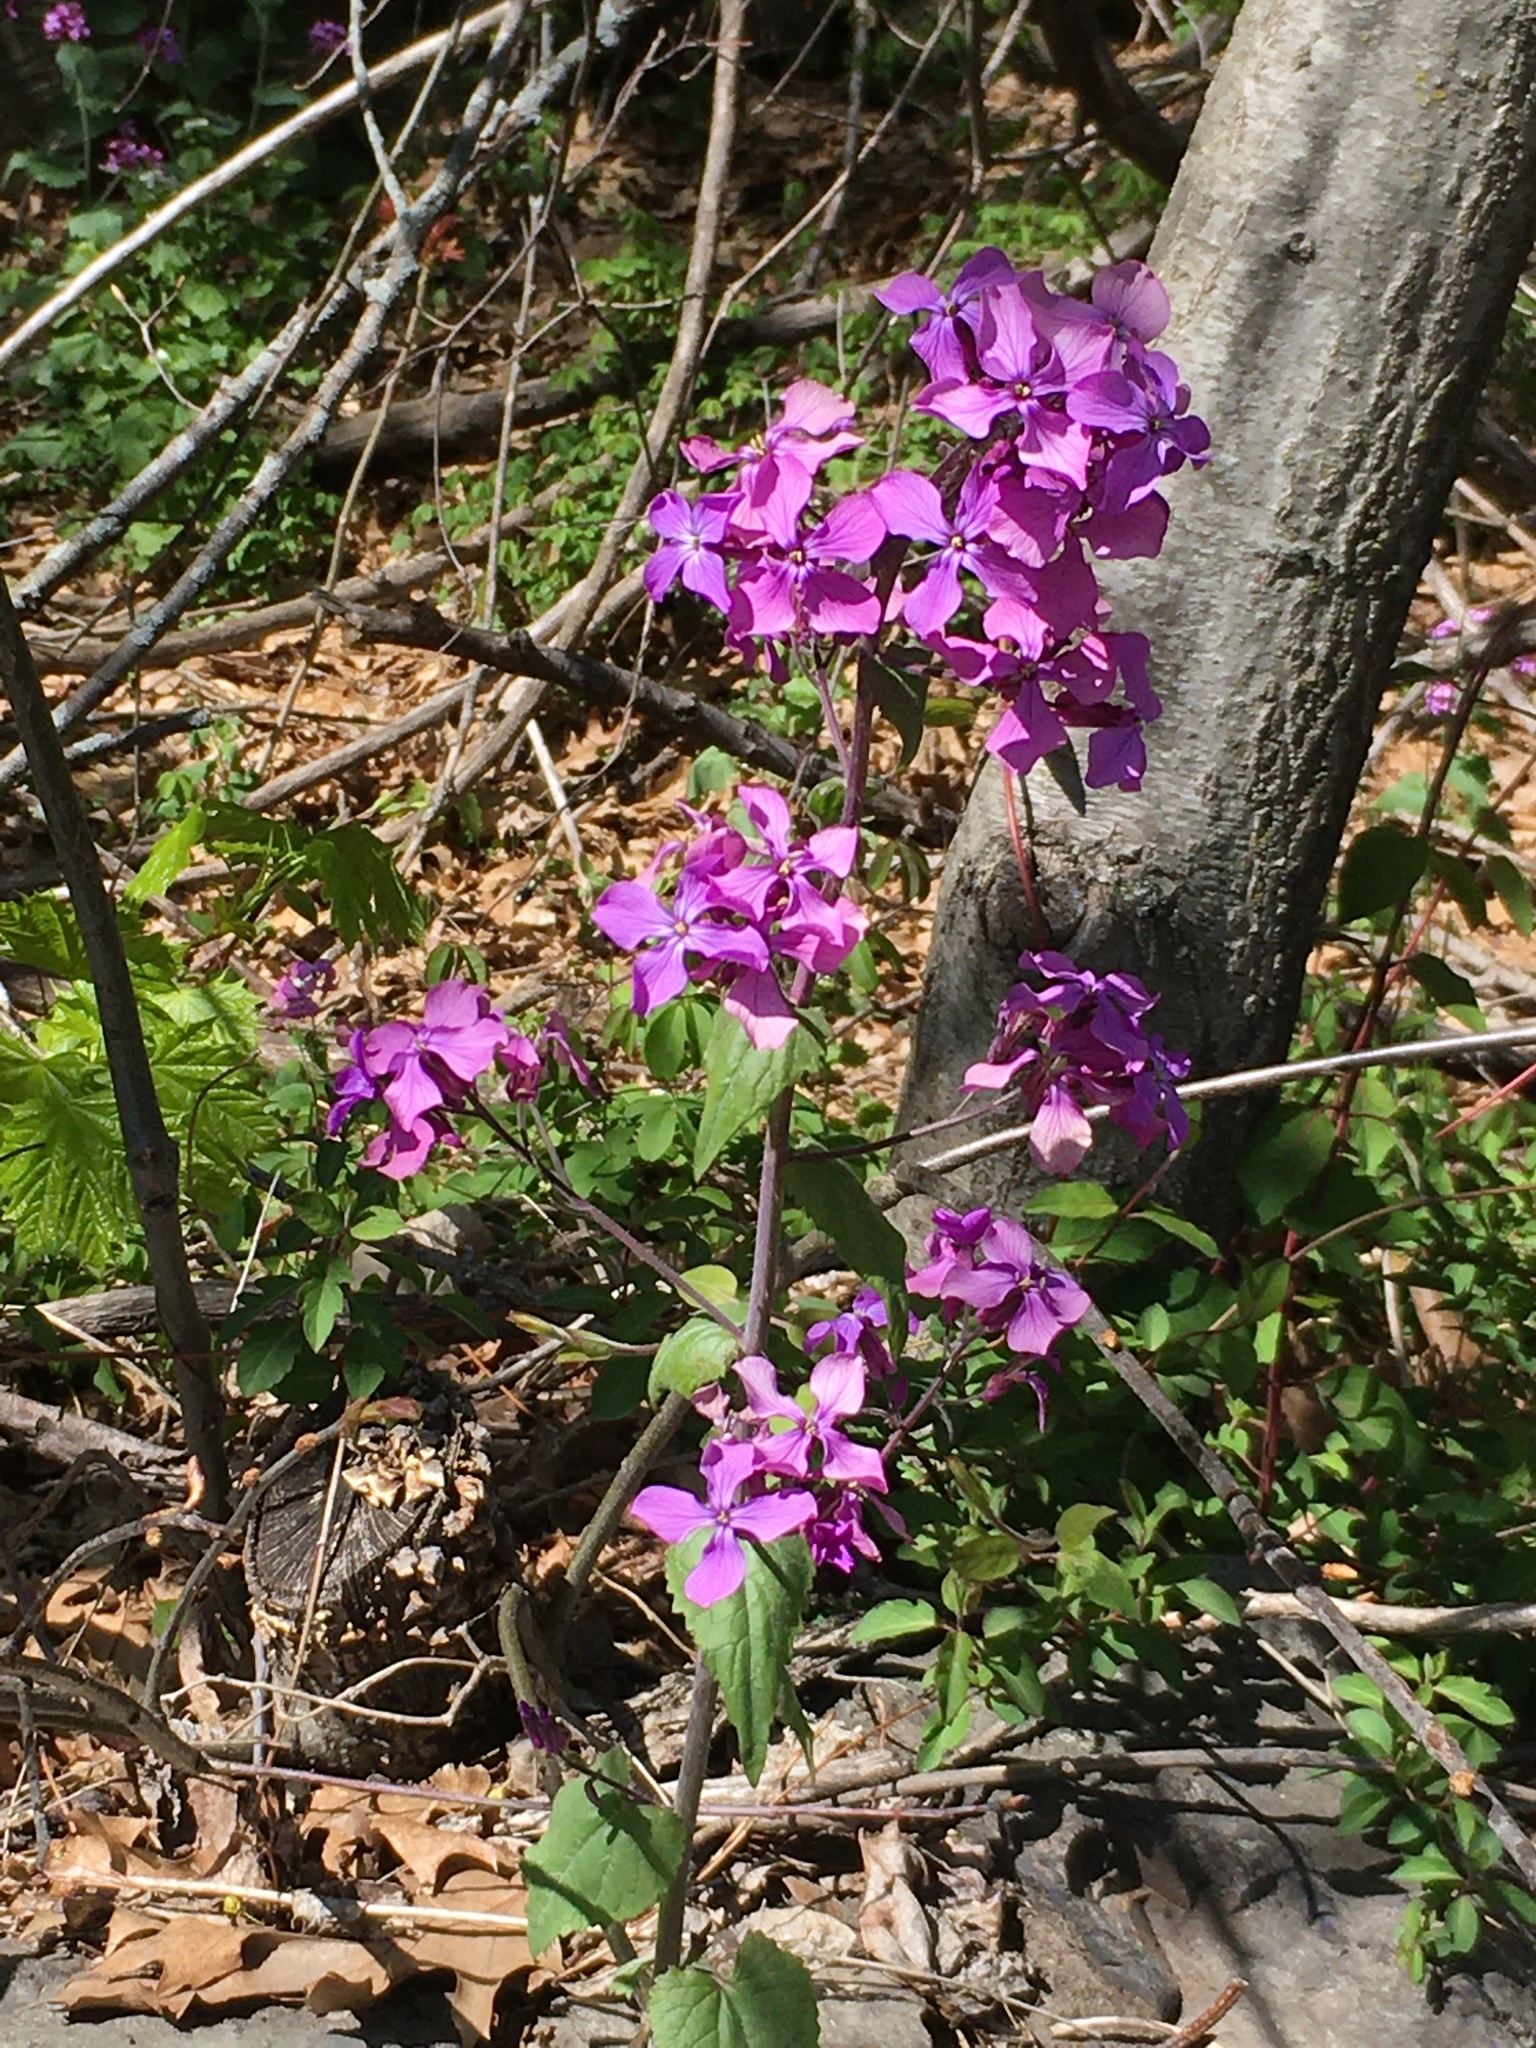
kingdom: Plantae
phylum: Tracheophyta
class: Magnoliopsida
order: Brassicales
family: Brassicaceae
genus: Lunaria
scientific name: Lunaria annua
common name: Honesty
